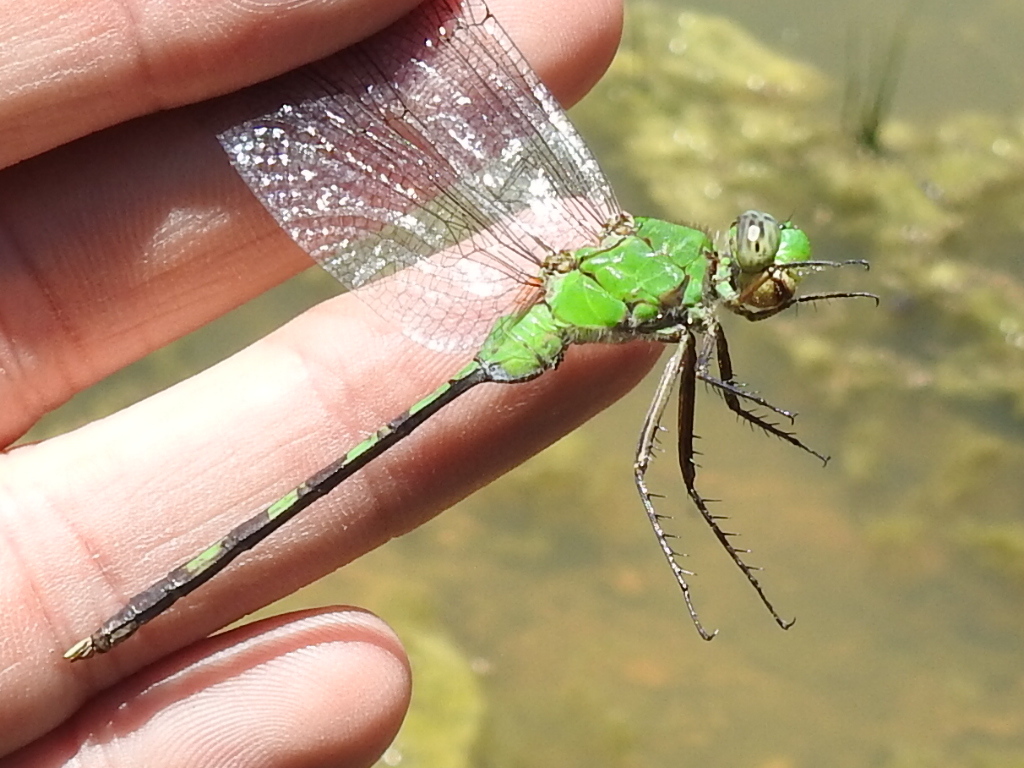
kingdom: Animalia
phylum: Arthropoda
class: Insecta
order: Odonata
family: Libellulidae
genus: Erythemis
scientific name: Erythemis vesiculosa
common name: Great pondhawk
